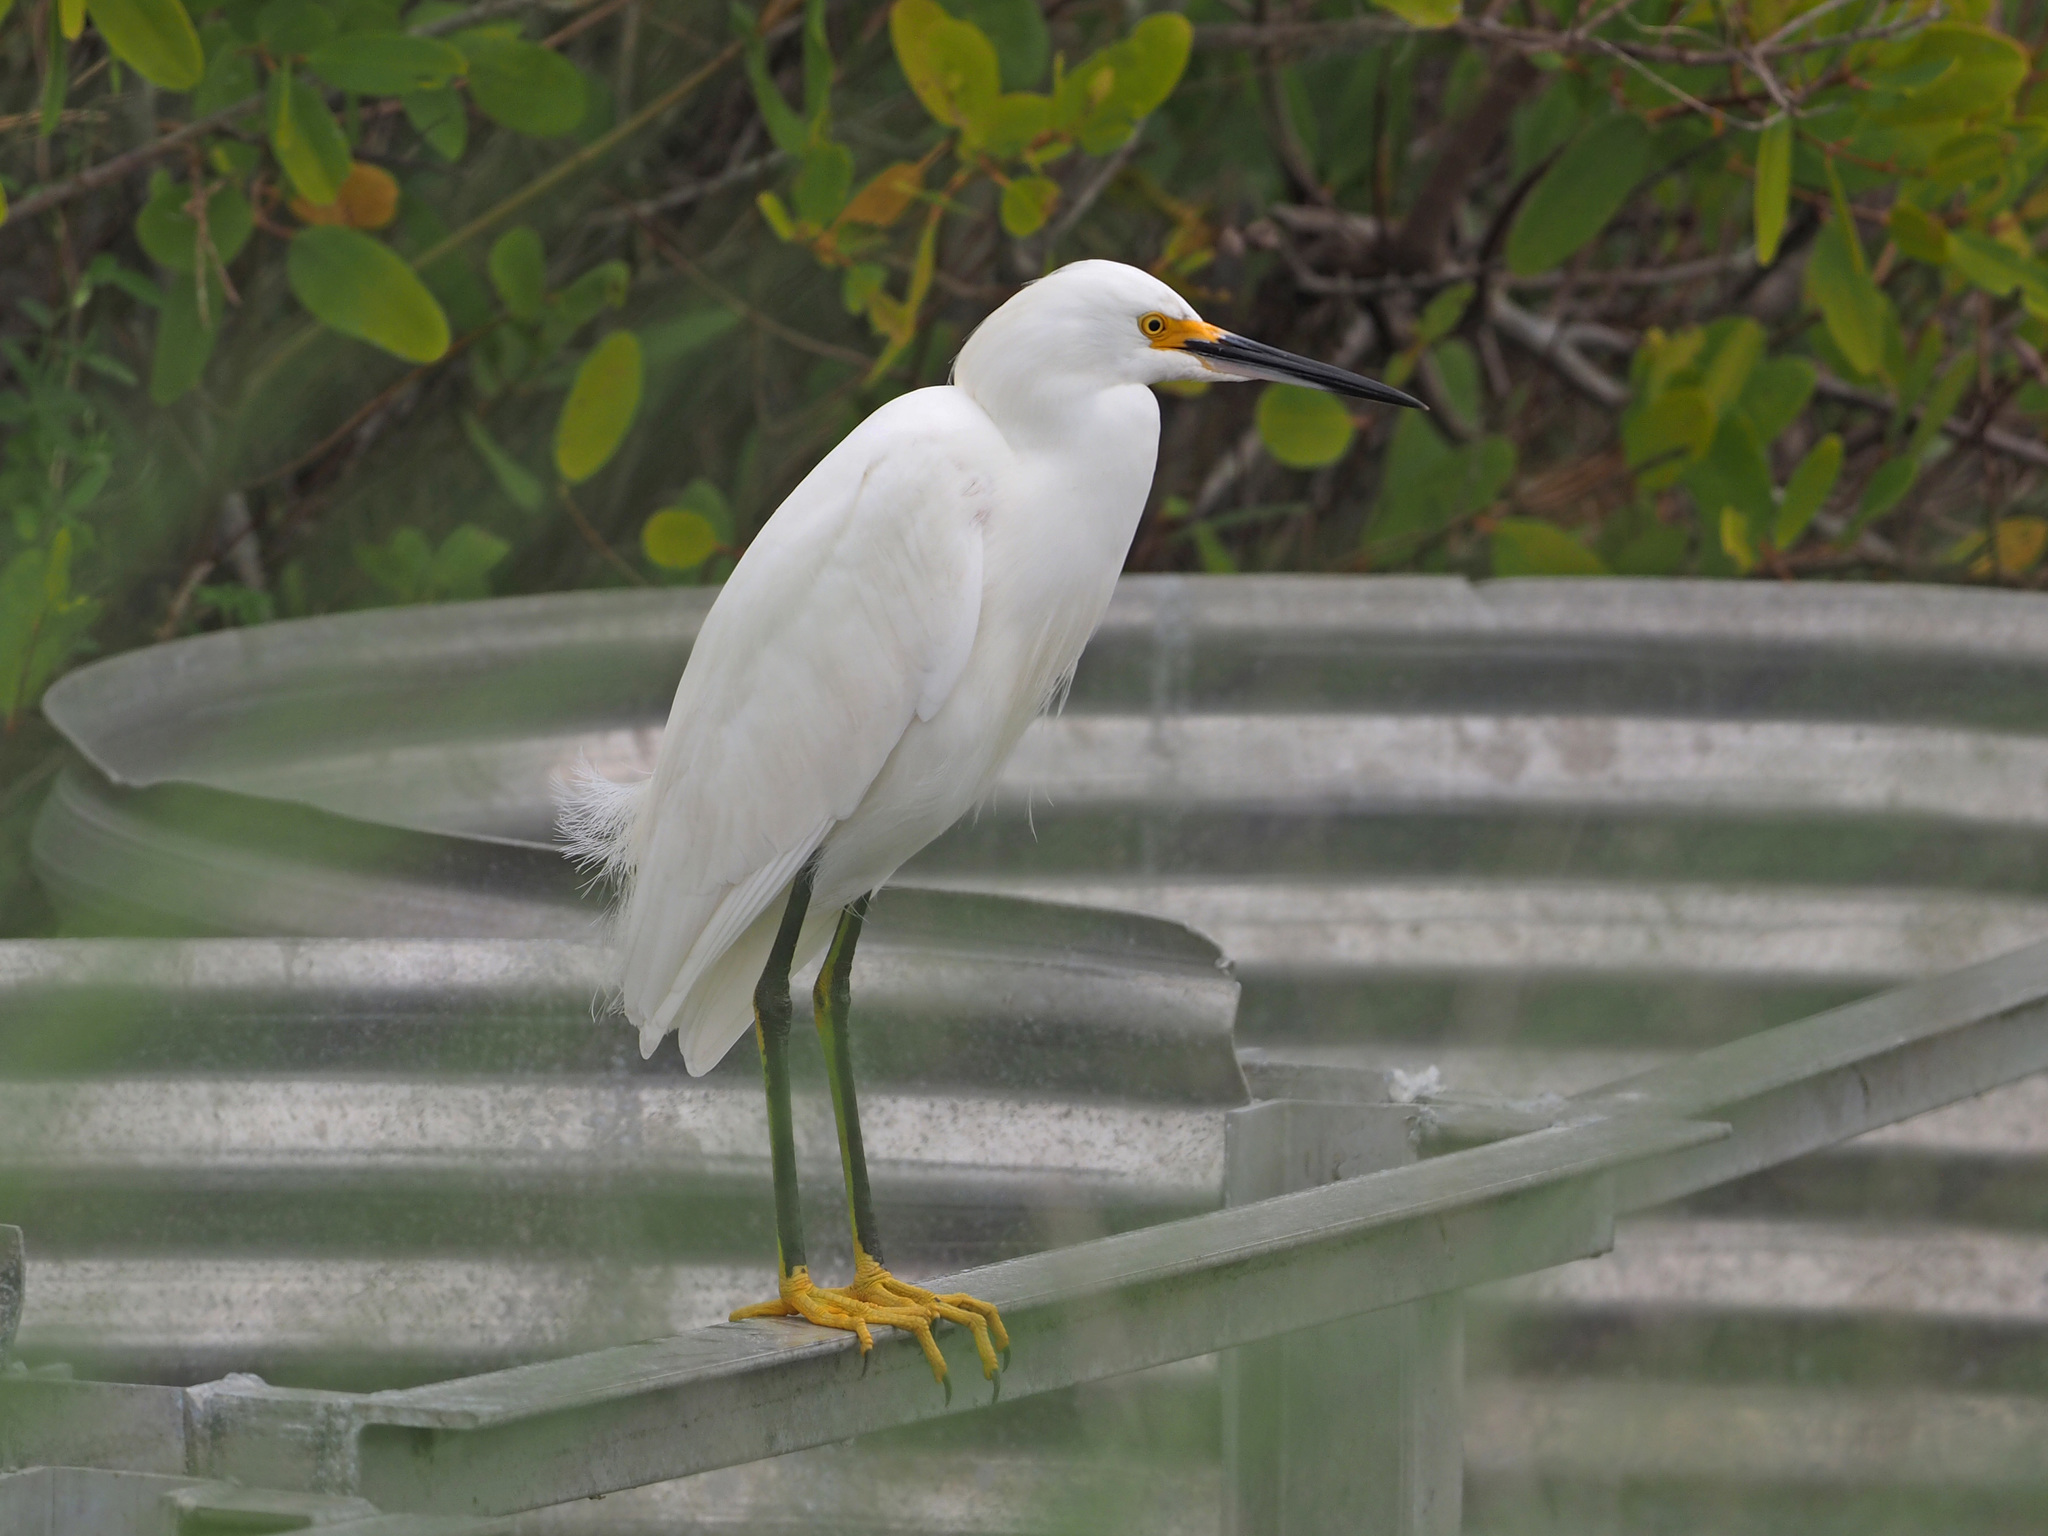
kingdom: Animalia
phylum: Chordata
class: Aves
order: Pelecaniformes
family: Ardeidae
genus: Egretta
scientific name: Egretta thula
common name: Snowy egret
